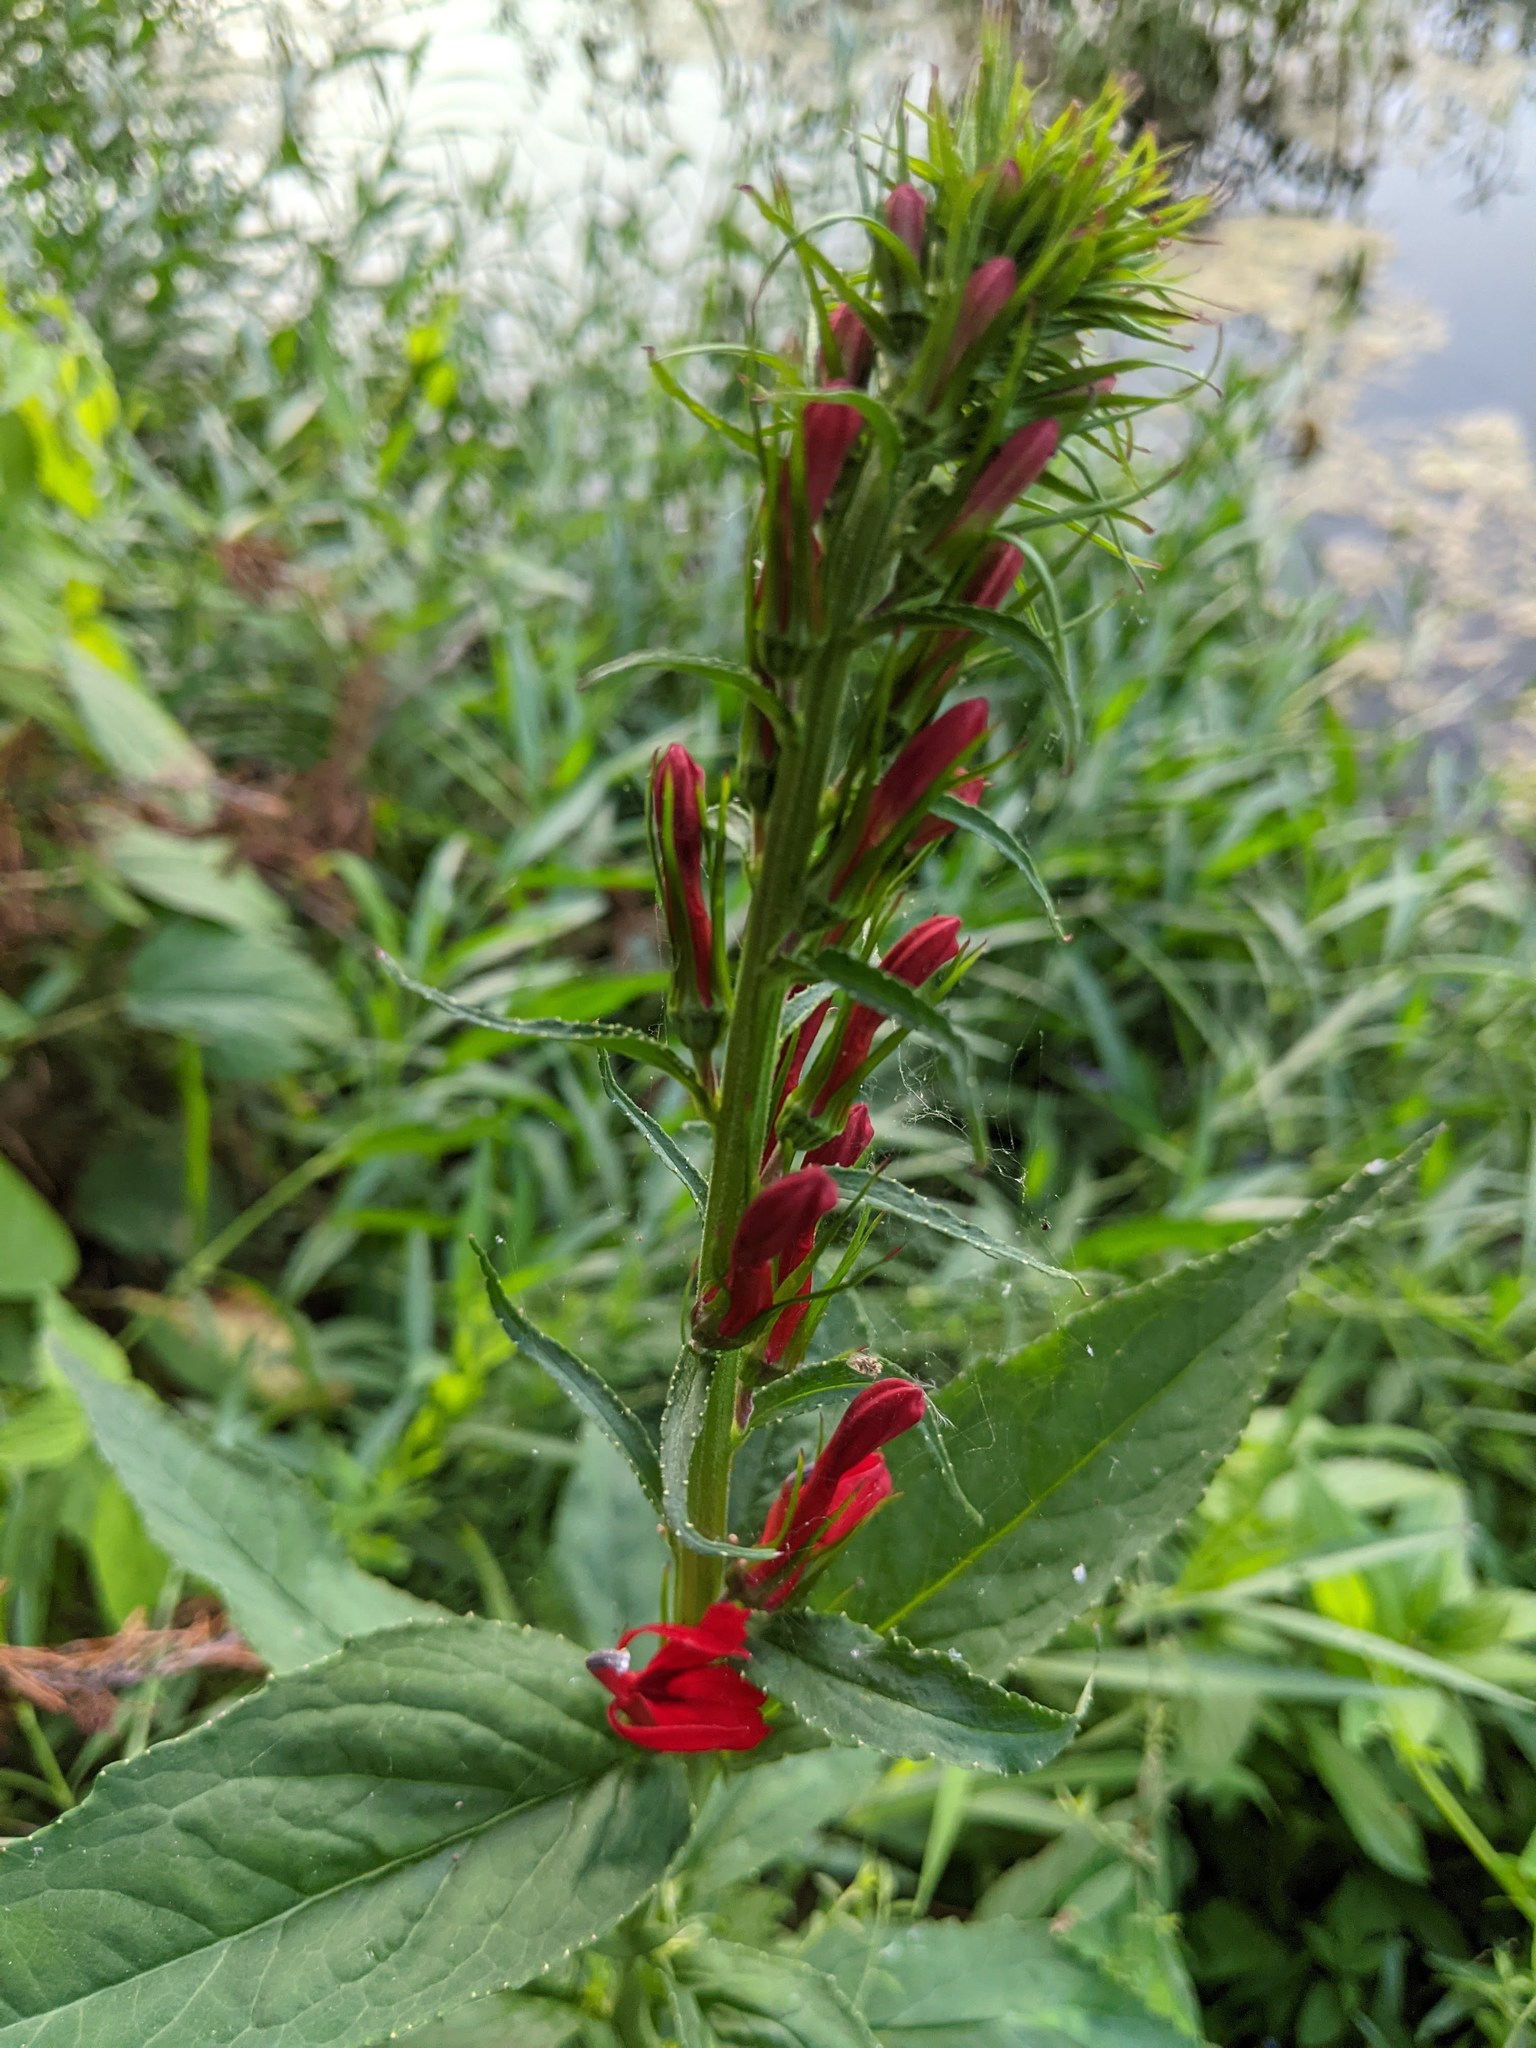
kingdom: Plantae
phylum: Tracheophyta
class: Magnoliopsida
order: Asterales
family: Campanulaceae
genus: Lobelia
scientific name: Lobelia cardinalis
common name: Cardinal flower
